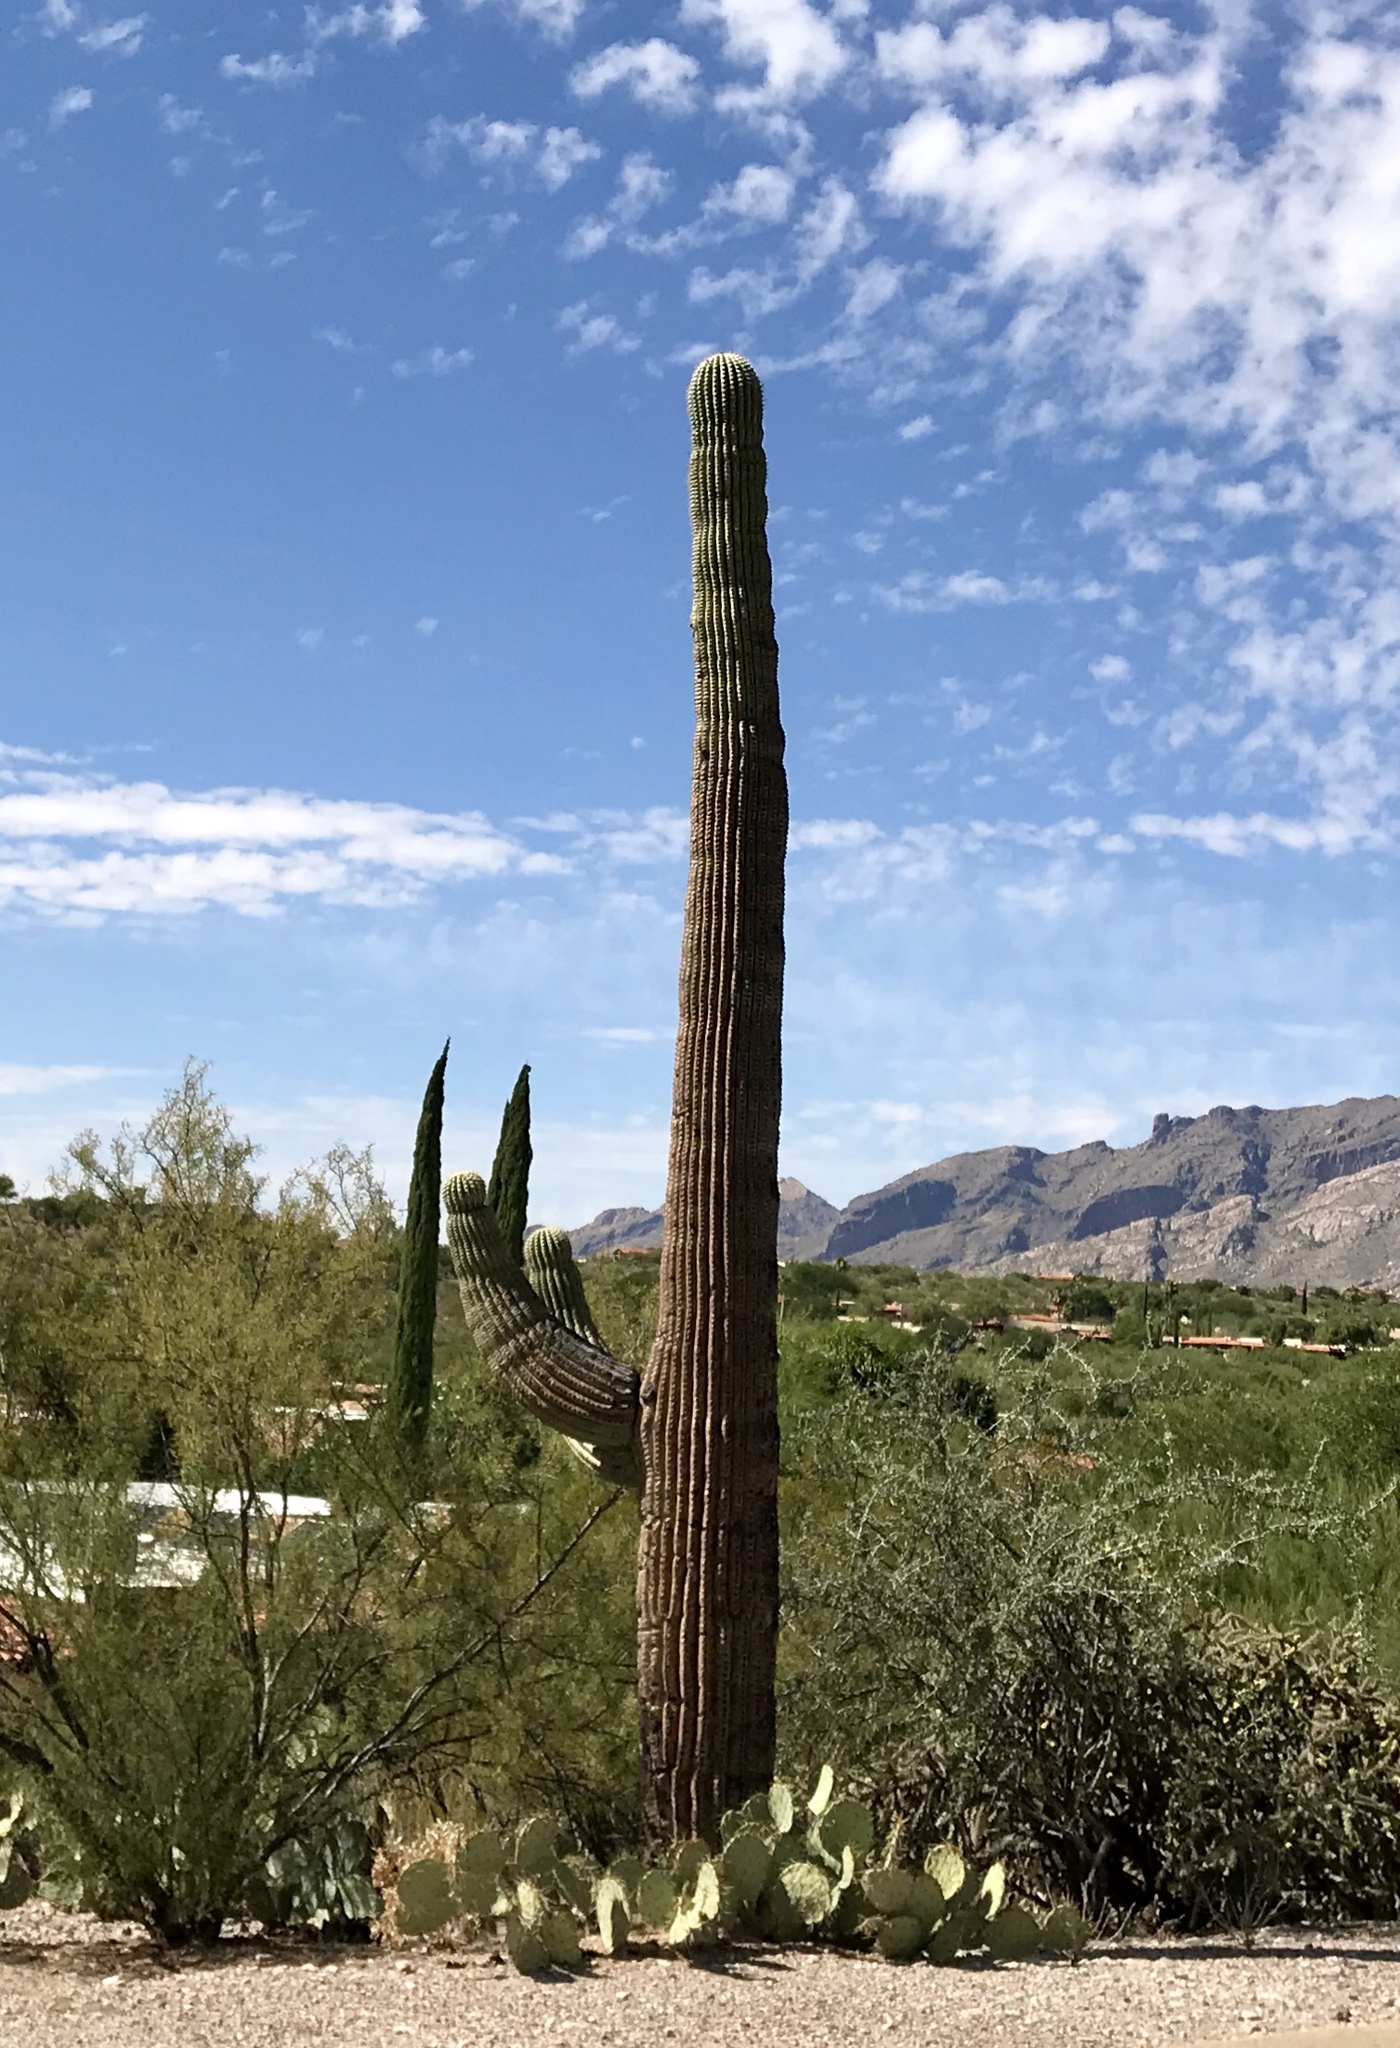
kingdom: Plantae
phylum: Tracheophyta
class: Magnoliopsida
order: Caryophyllales
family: Cactaceae
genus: Carnegiea
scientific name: Carnegiea gigantea
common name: Saguaro
